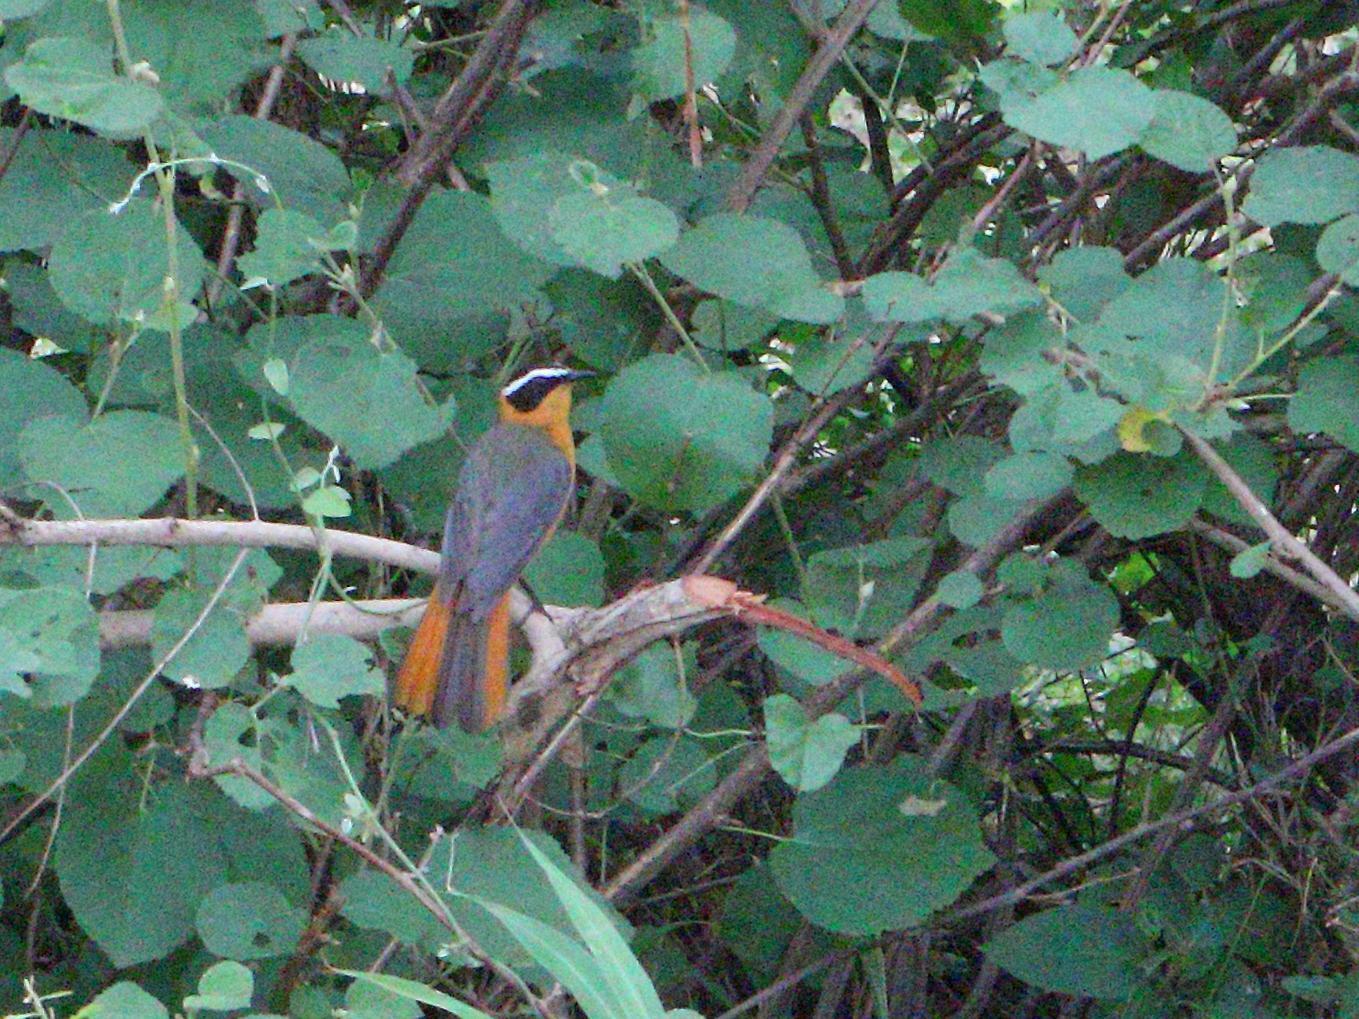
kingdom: Animalia
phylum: Chordata
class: Aves
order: Passeriformes
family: Muscicapidae
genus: Cossypha
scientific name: Cossypha heuglini
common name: White-browed robin-chat
